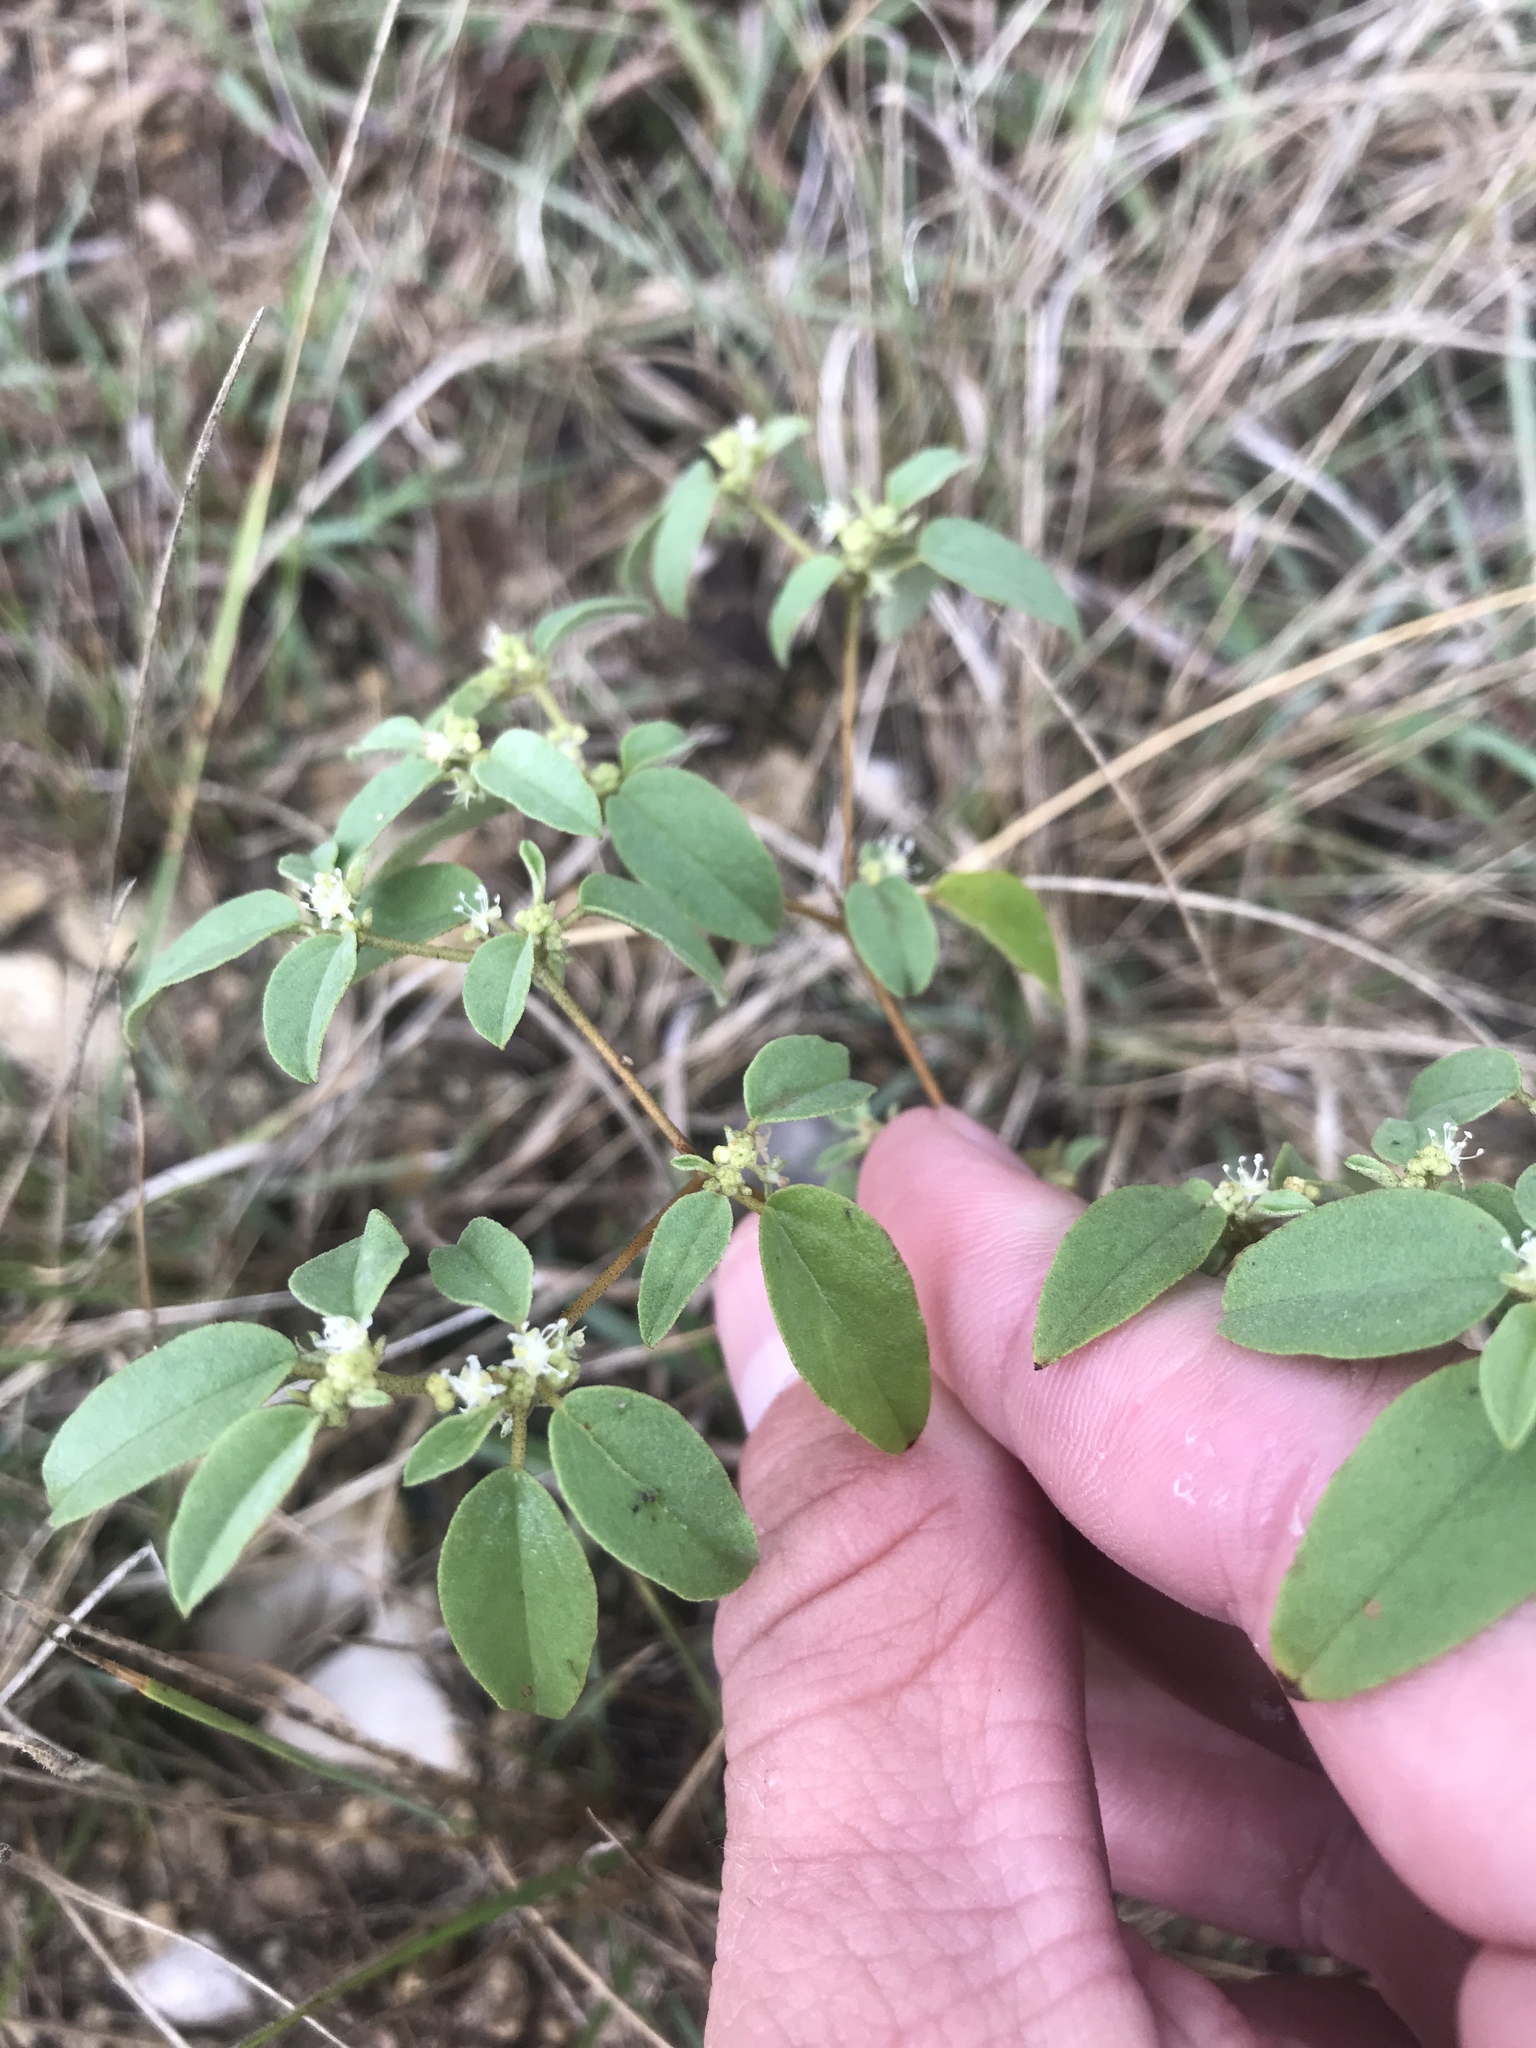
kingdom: Plantae
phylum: Tracheophyta
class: Magnoliopsida
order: Malpighiales
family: Euphorbiaceae
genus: Croton
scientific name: Croton monanthogynus
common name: One-seed croton
